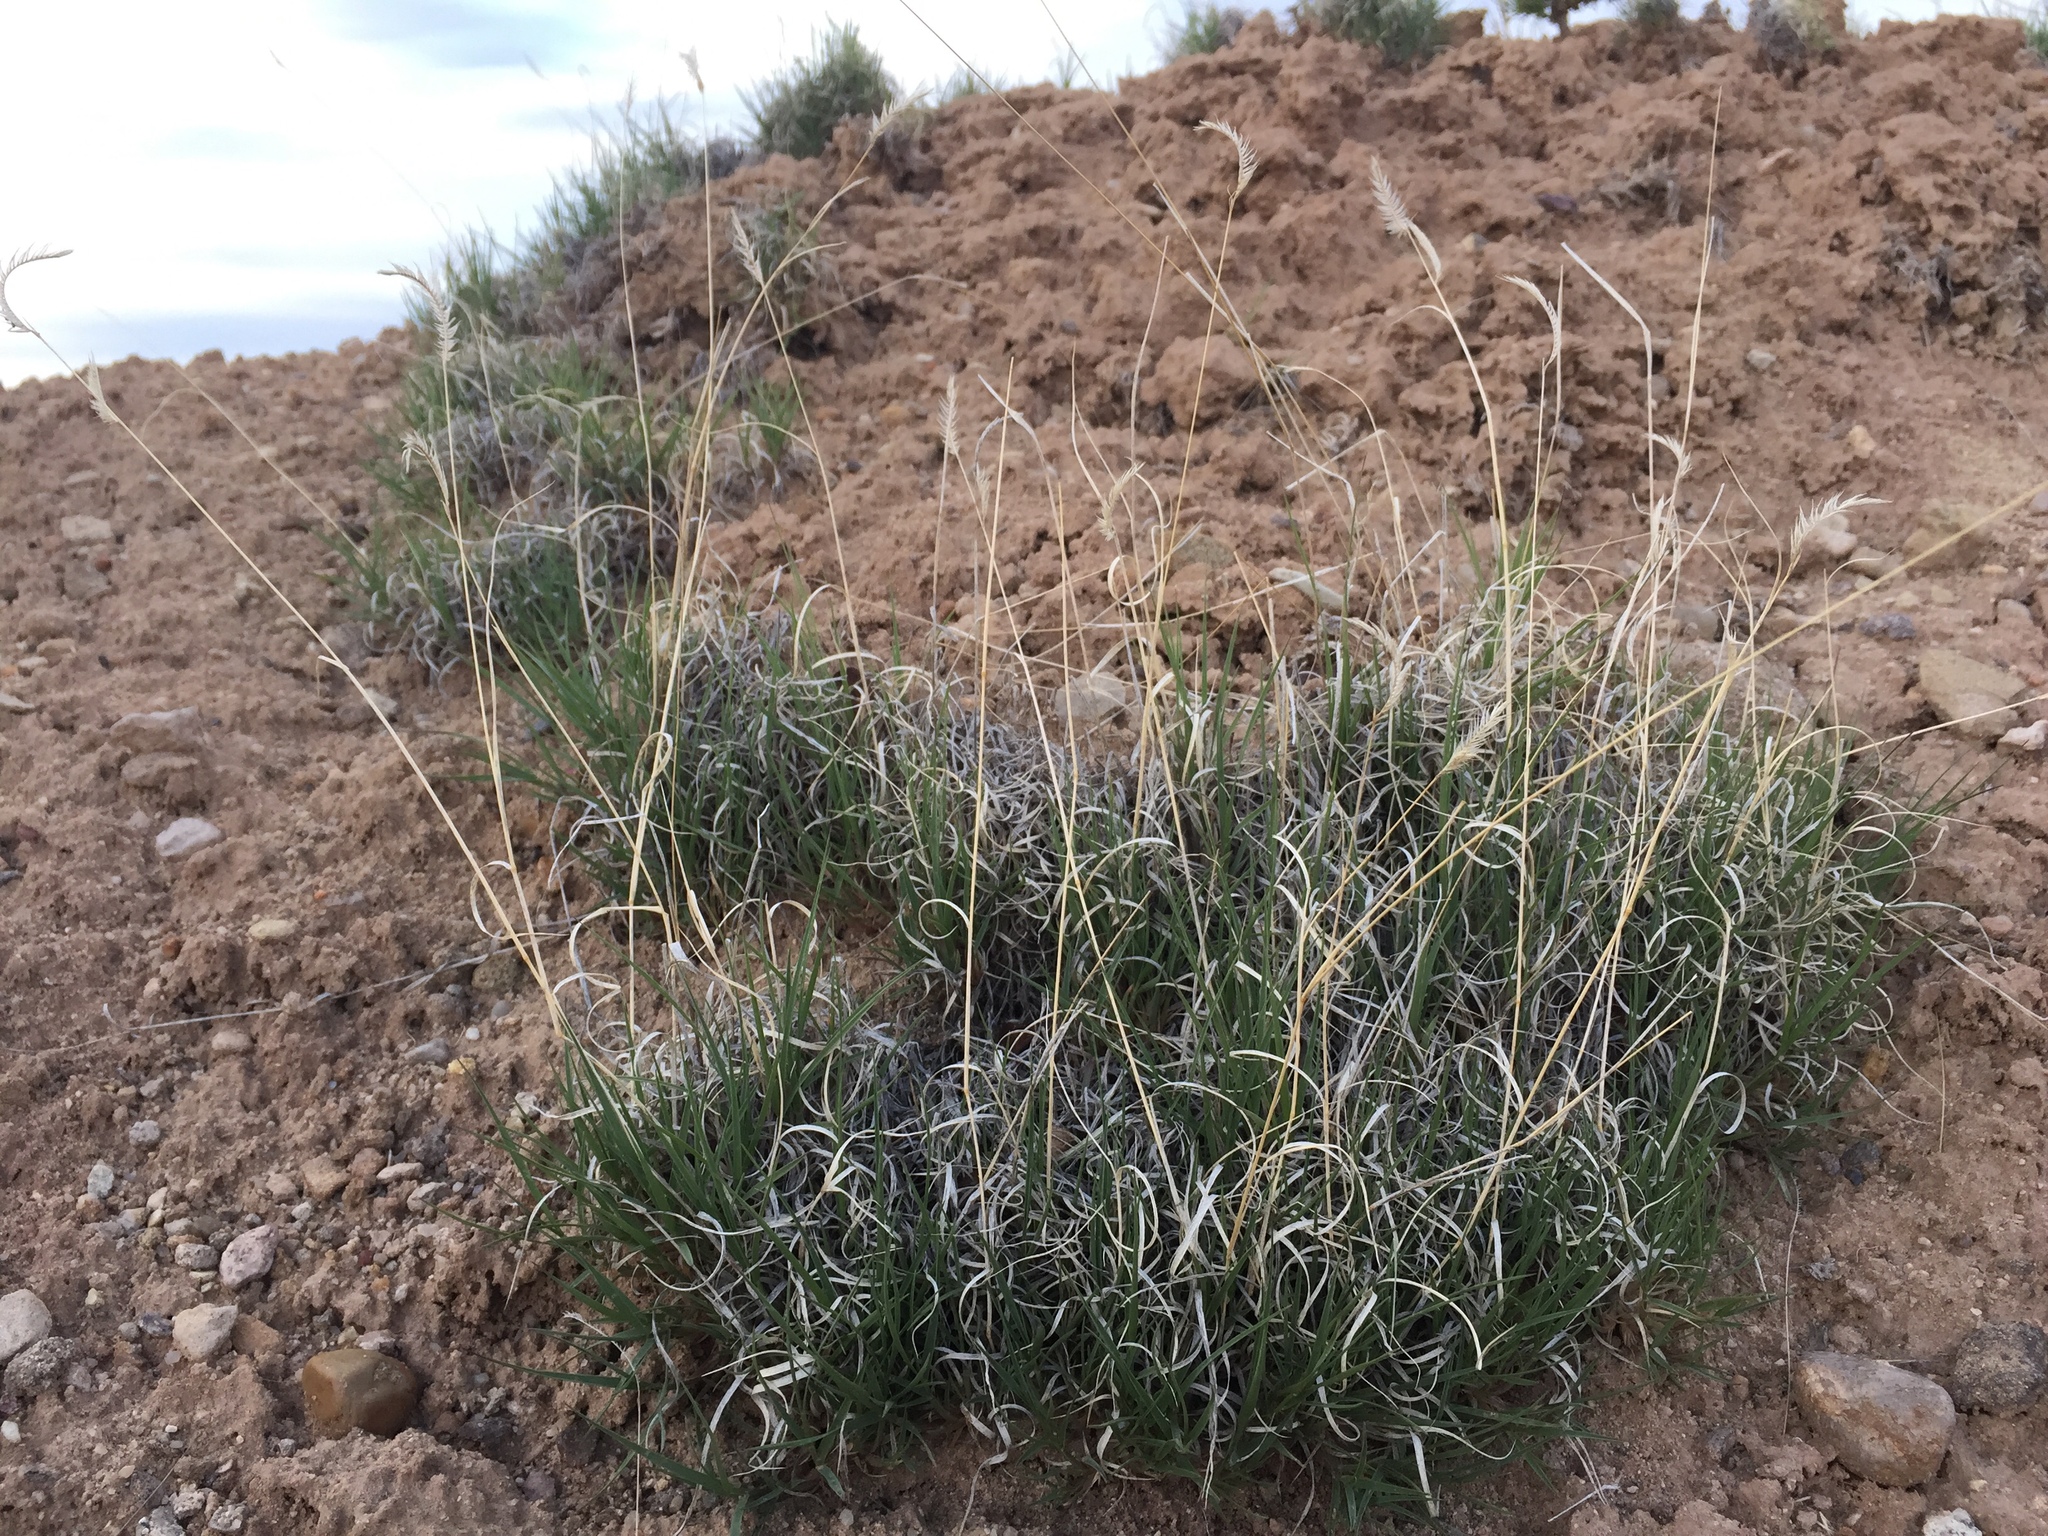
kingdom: Plantae
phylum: Tracheophyta
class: Liliopsida
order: Poales
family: Poaceae
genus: Bouteloua
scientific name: Bouteloua gracilis
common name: Blue grama
